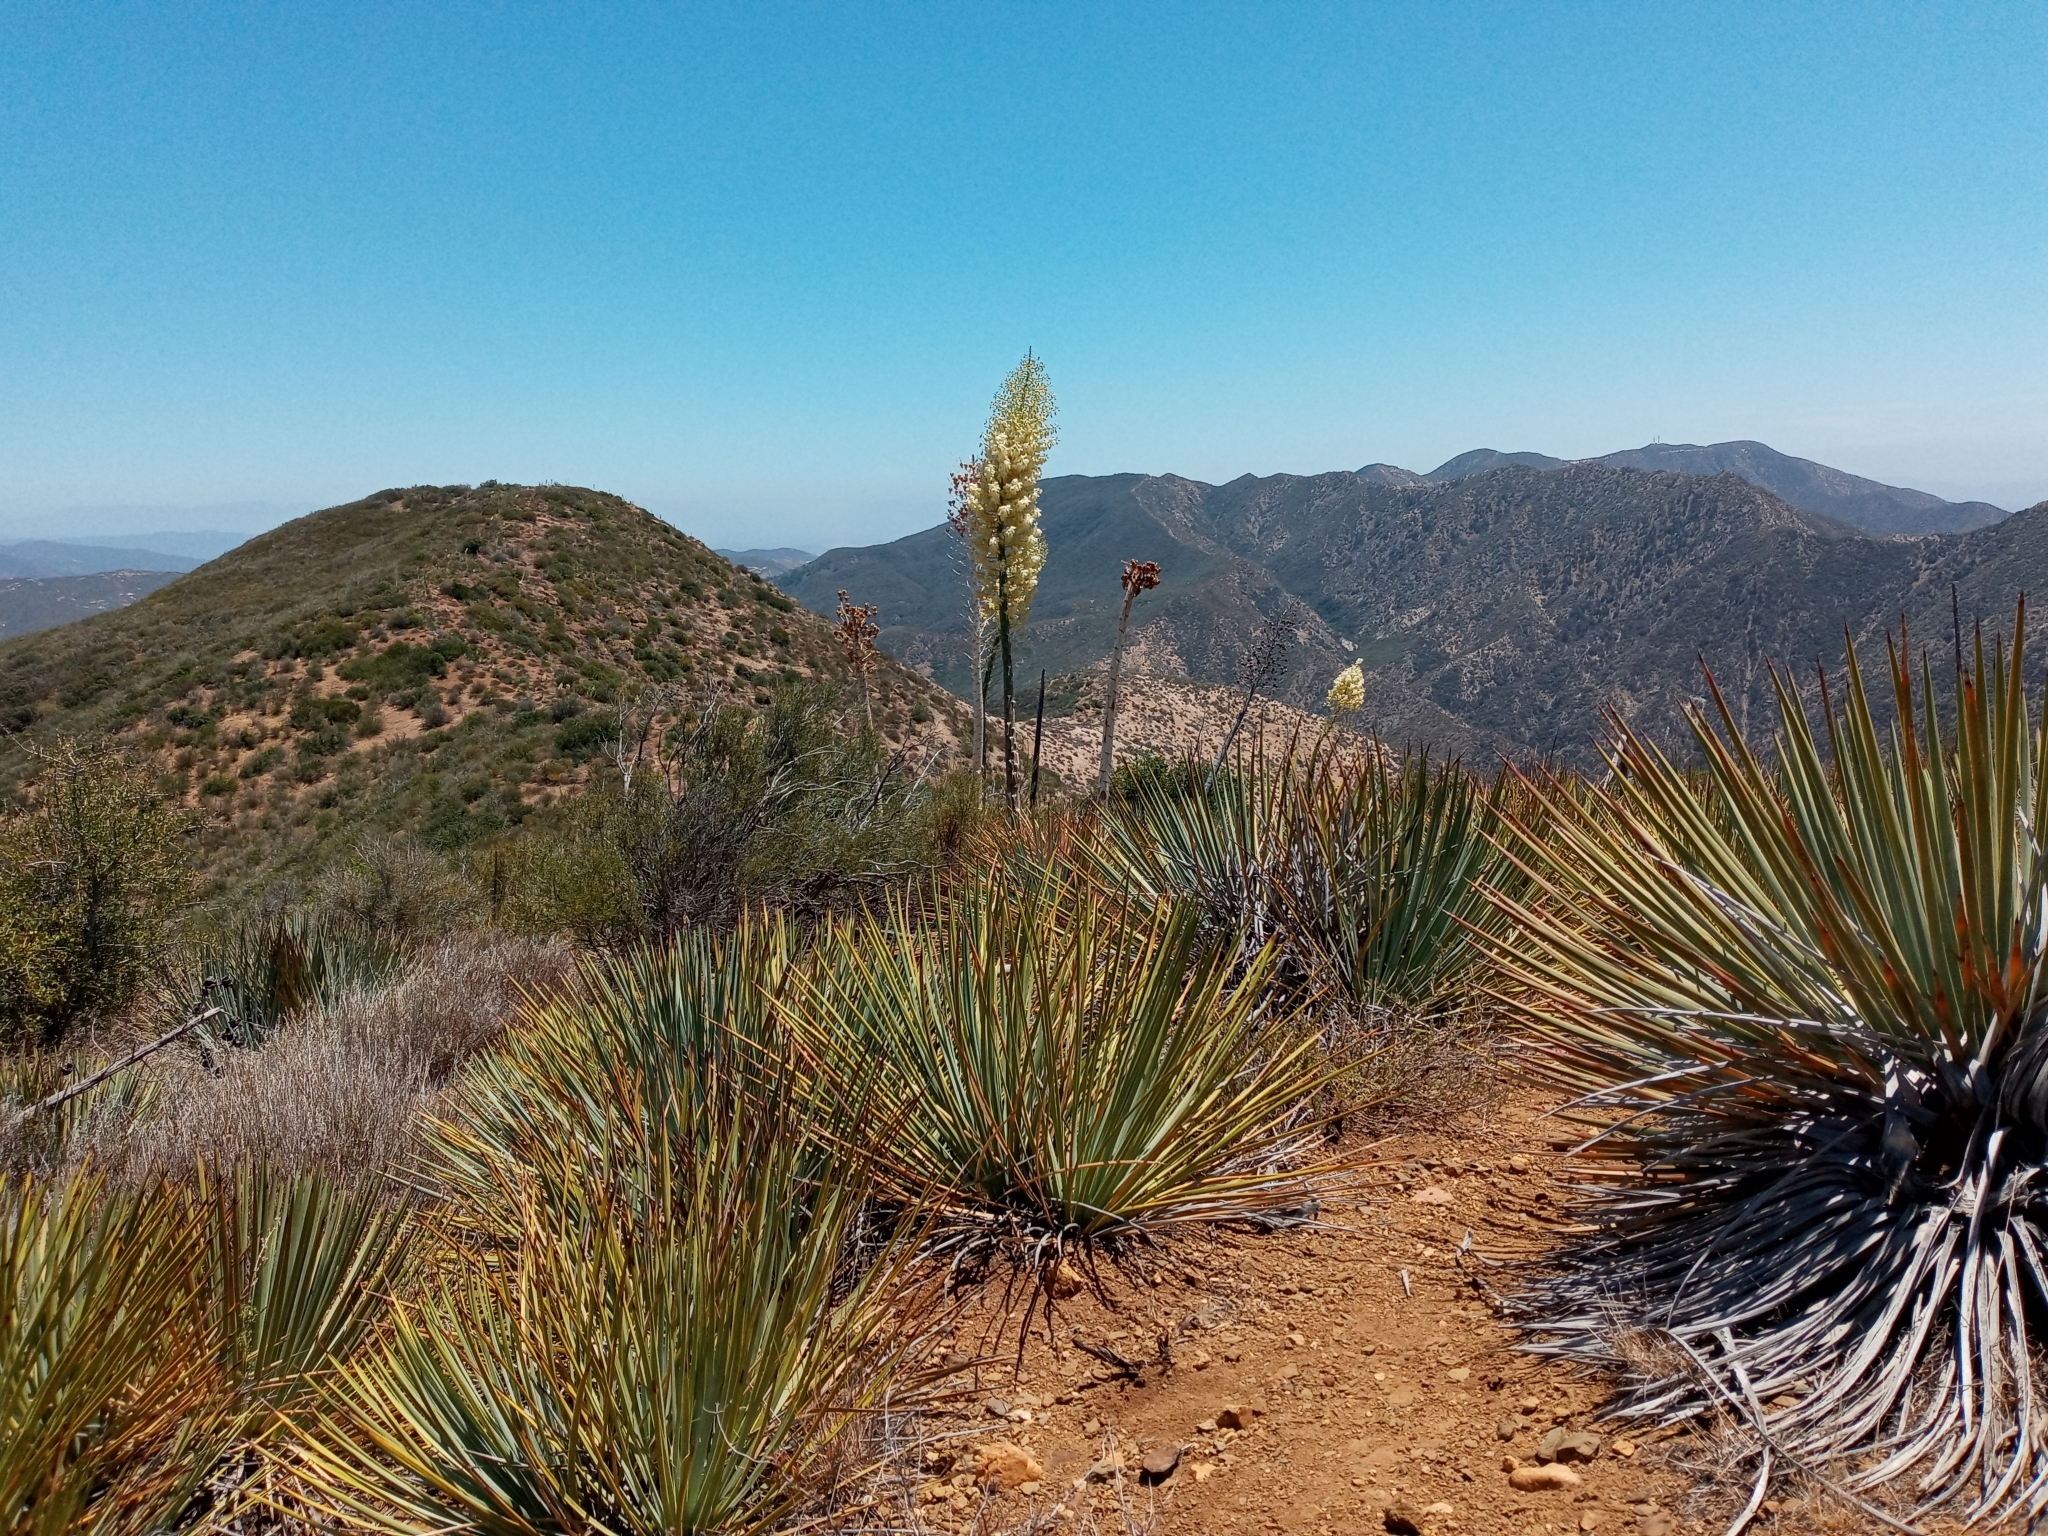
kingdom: Plantae
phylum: Tracheophyta
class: Liliopsida
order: Asparagales
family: Asparagaceae
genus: Hesperoyucca
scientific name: Hesperoyucca whipplei
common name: Our lord's-candle
